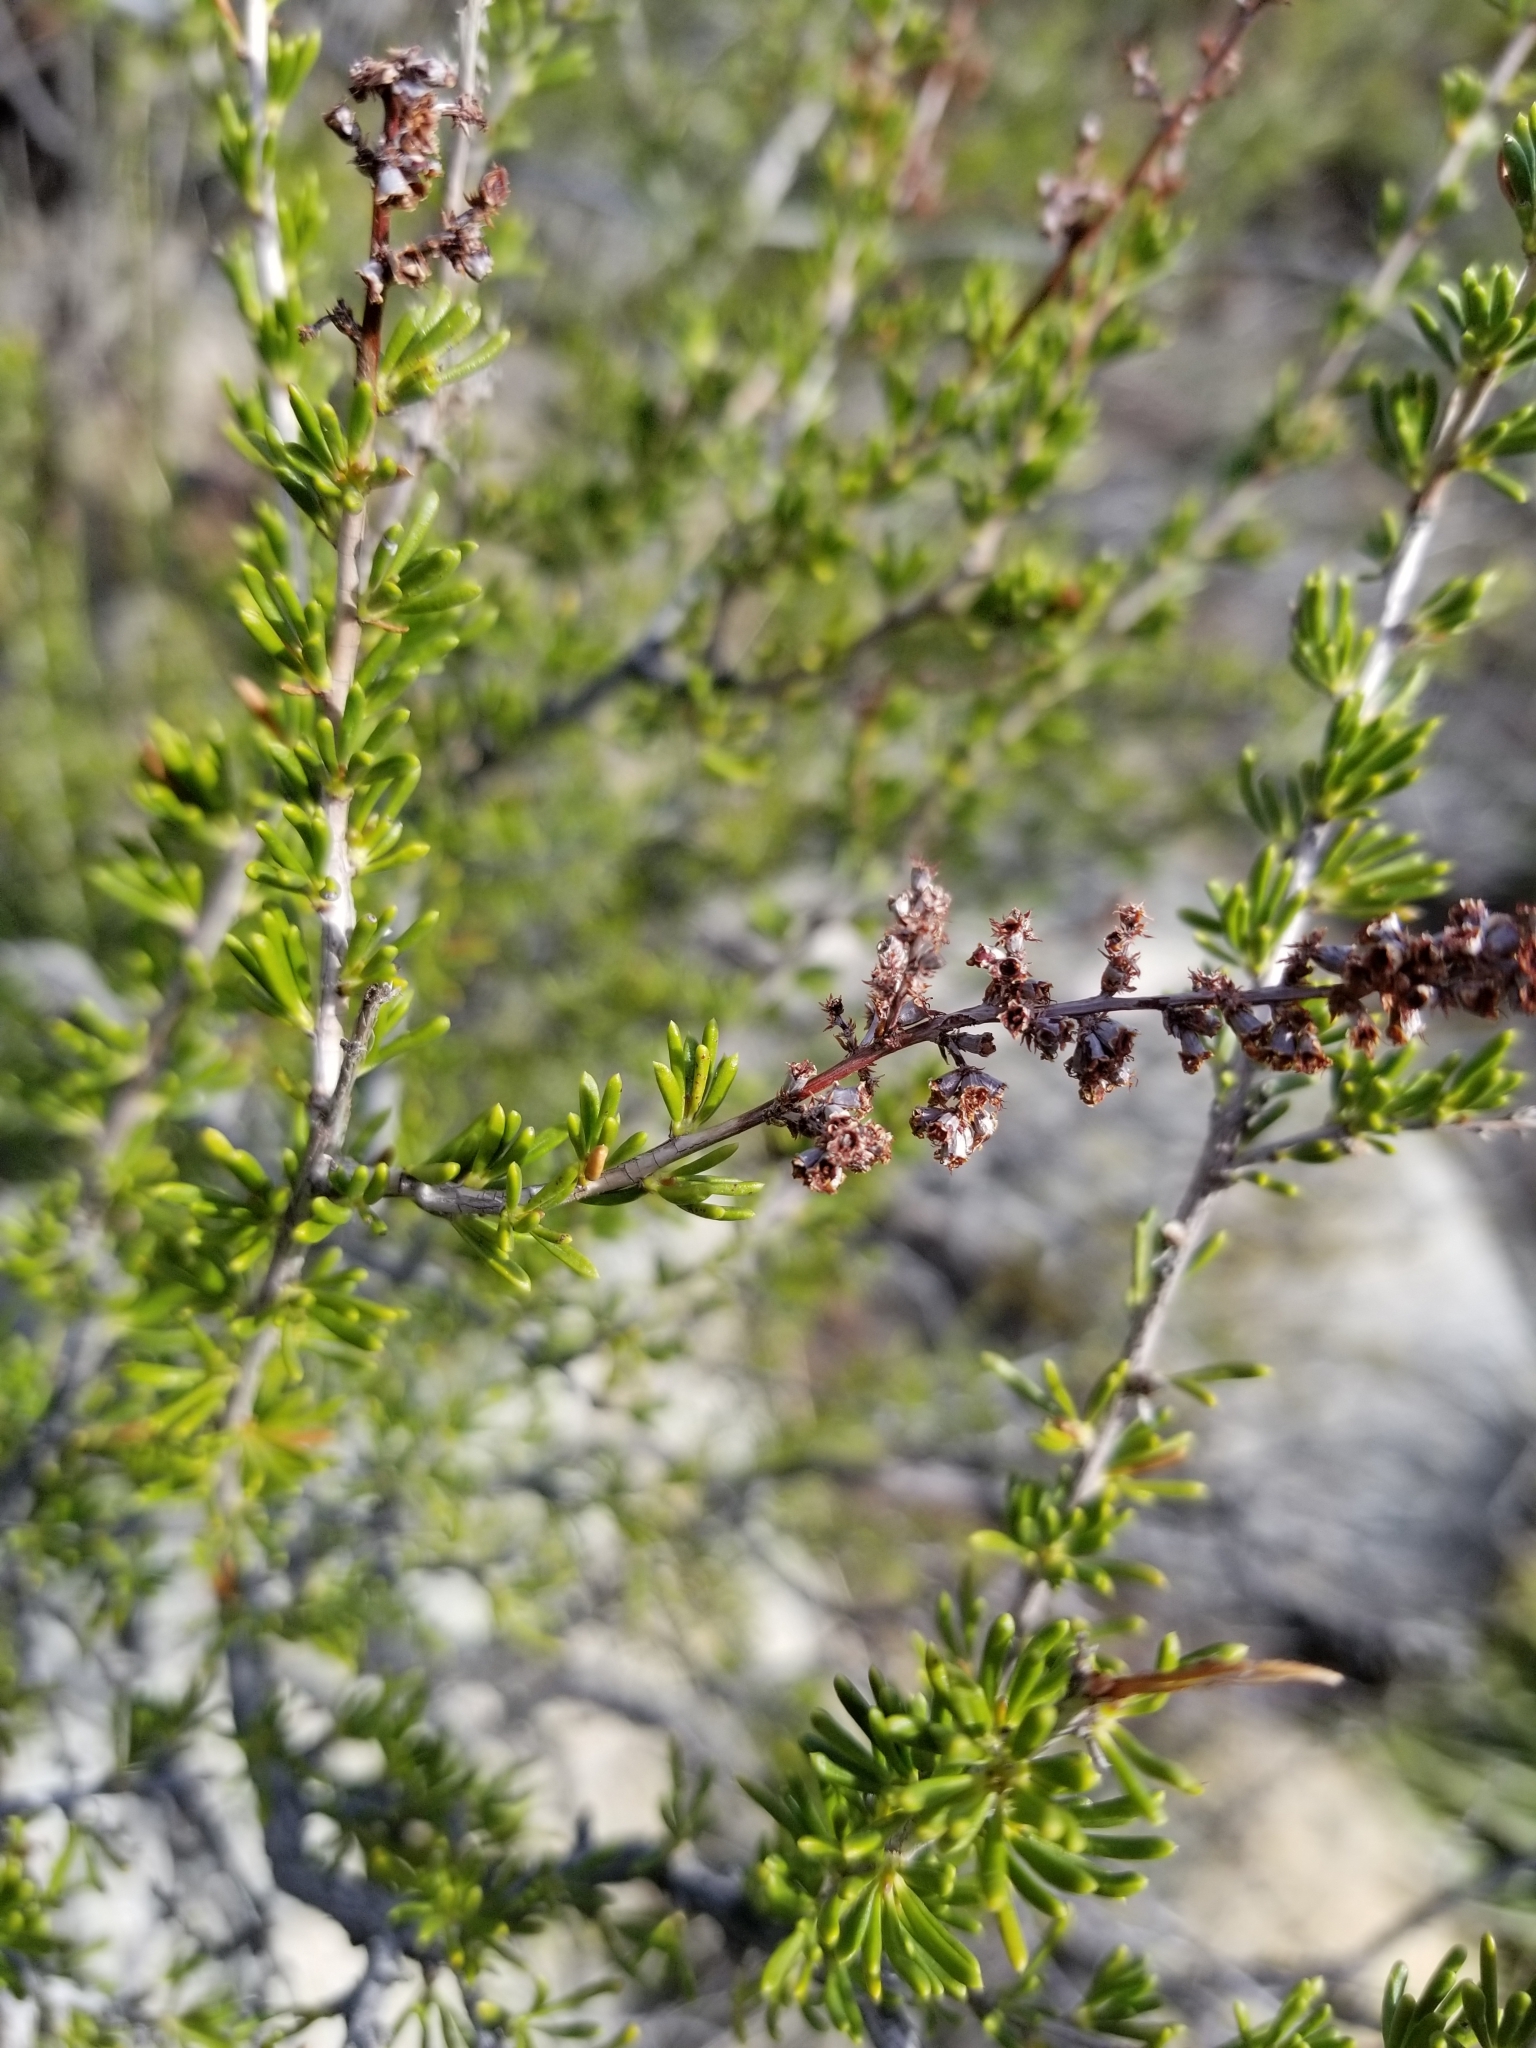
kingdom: Plantae
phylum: Tracheophyta
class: Magnoliopsida
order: Rosales
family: Rosaceae
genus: Adenostoma
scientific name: Adenostoma fasciculatum
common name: Chamise
